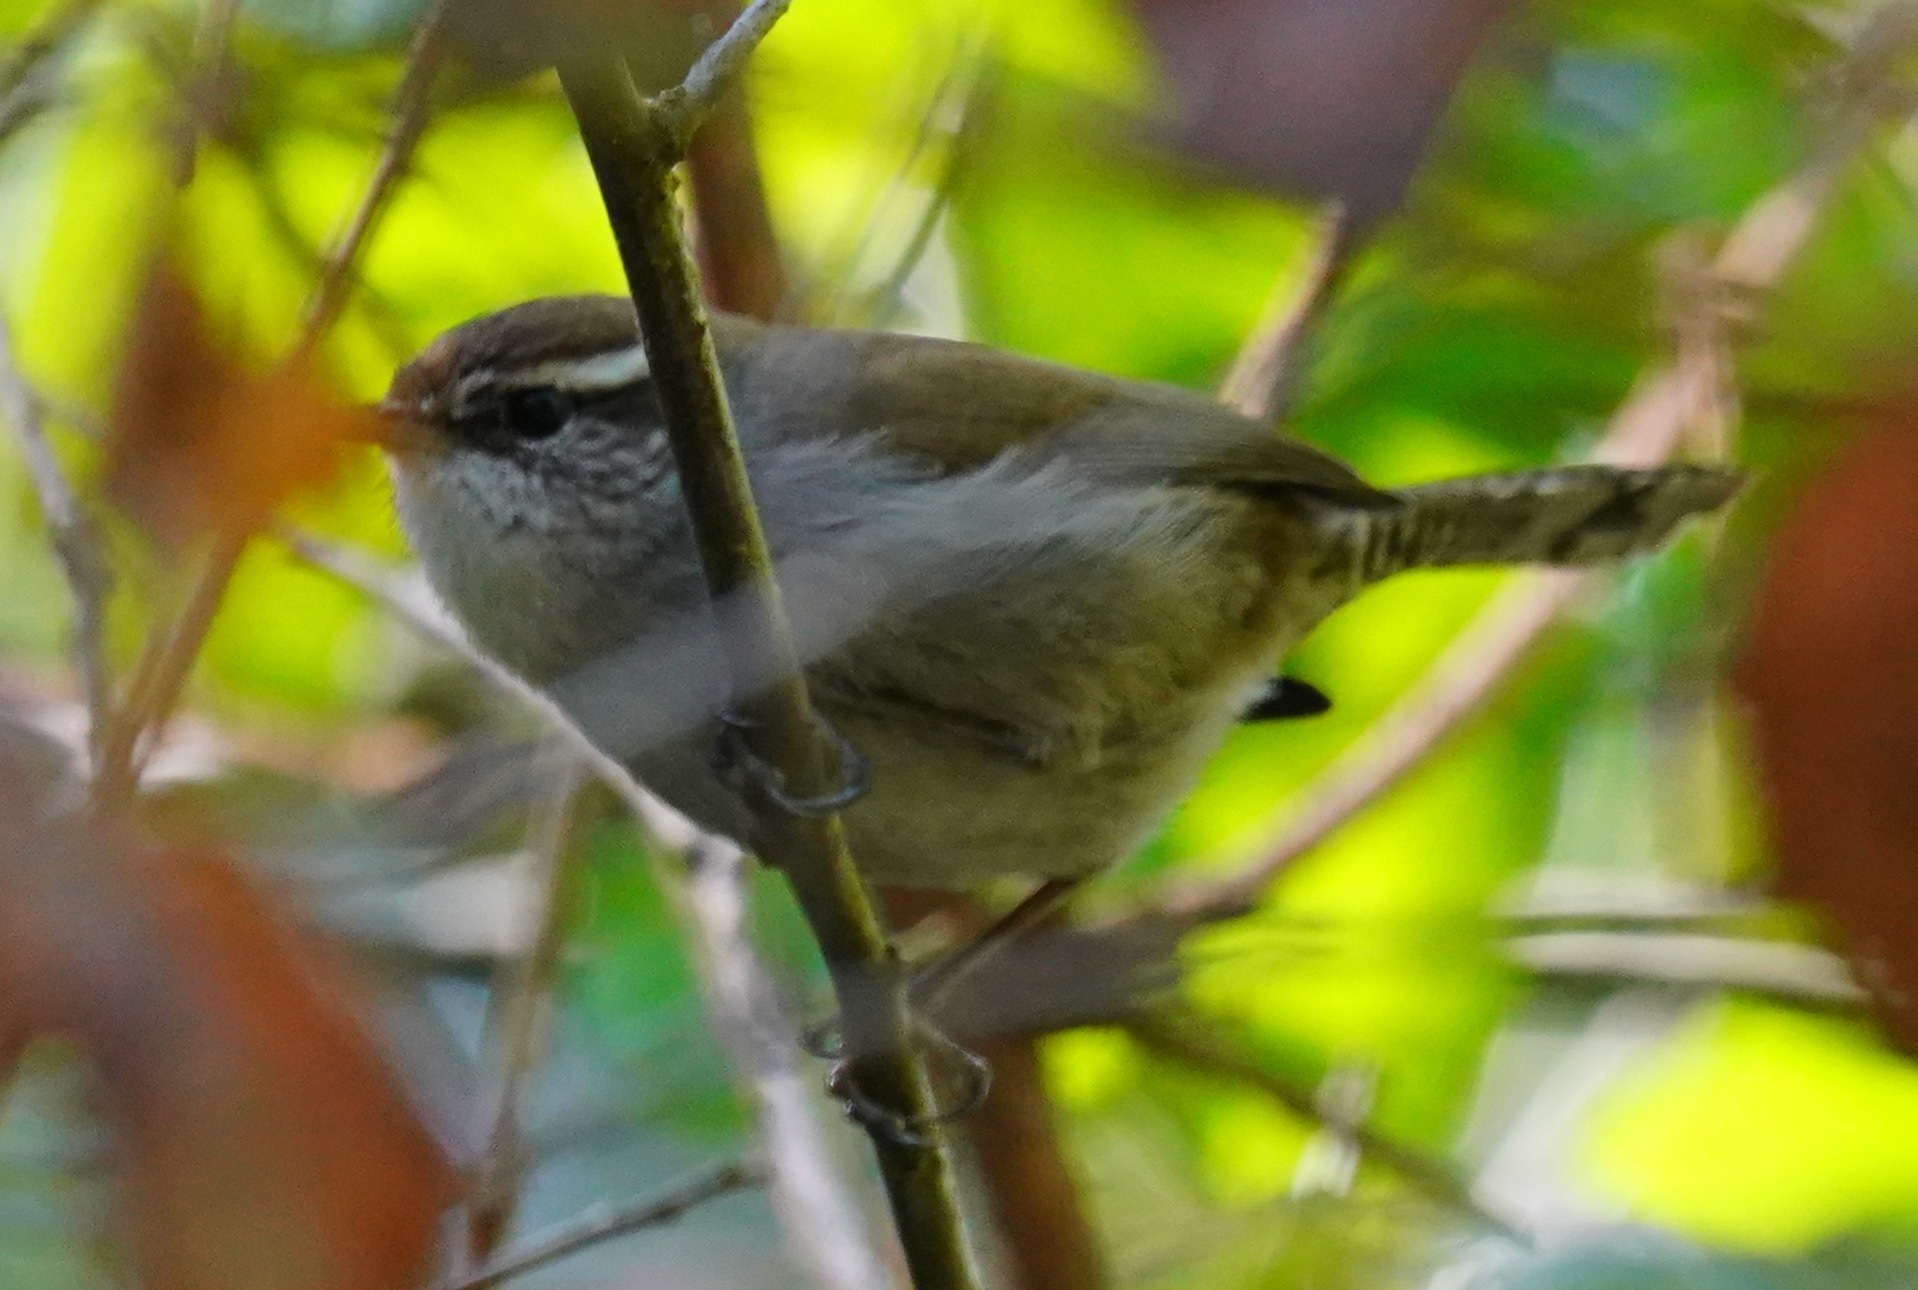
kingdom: Animalia
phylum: Chordata
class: Aves
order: Passeriformes
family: Troglodytidae
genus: Thryomanes
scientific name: Thryomanes bewickii
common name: Bewick's wren
